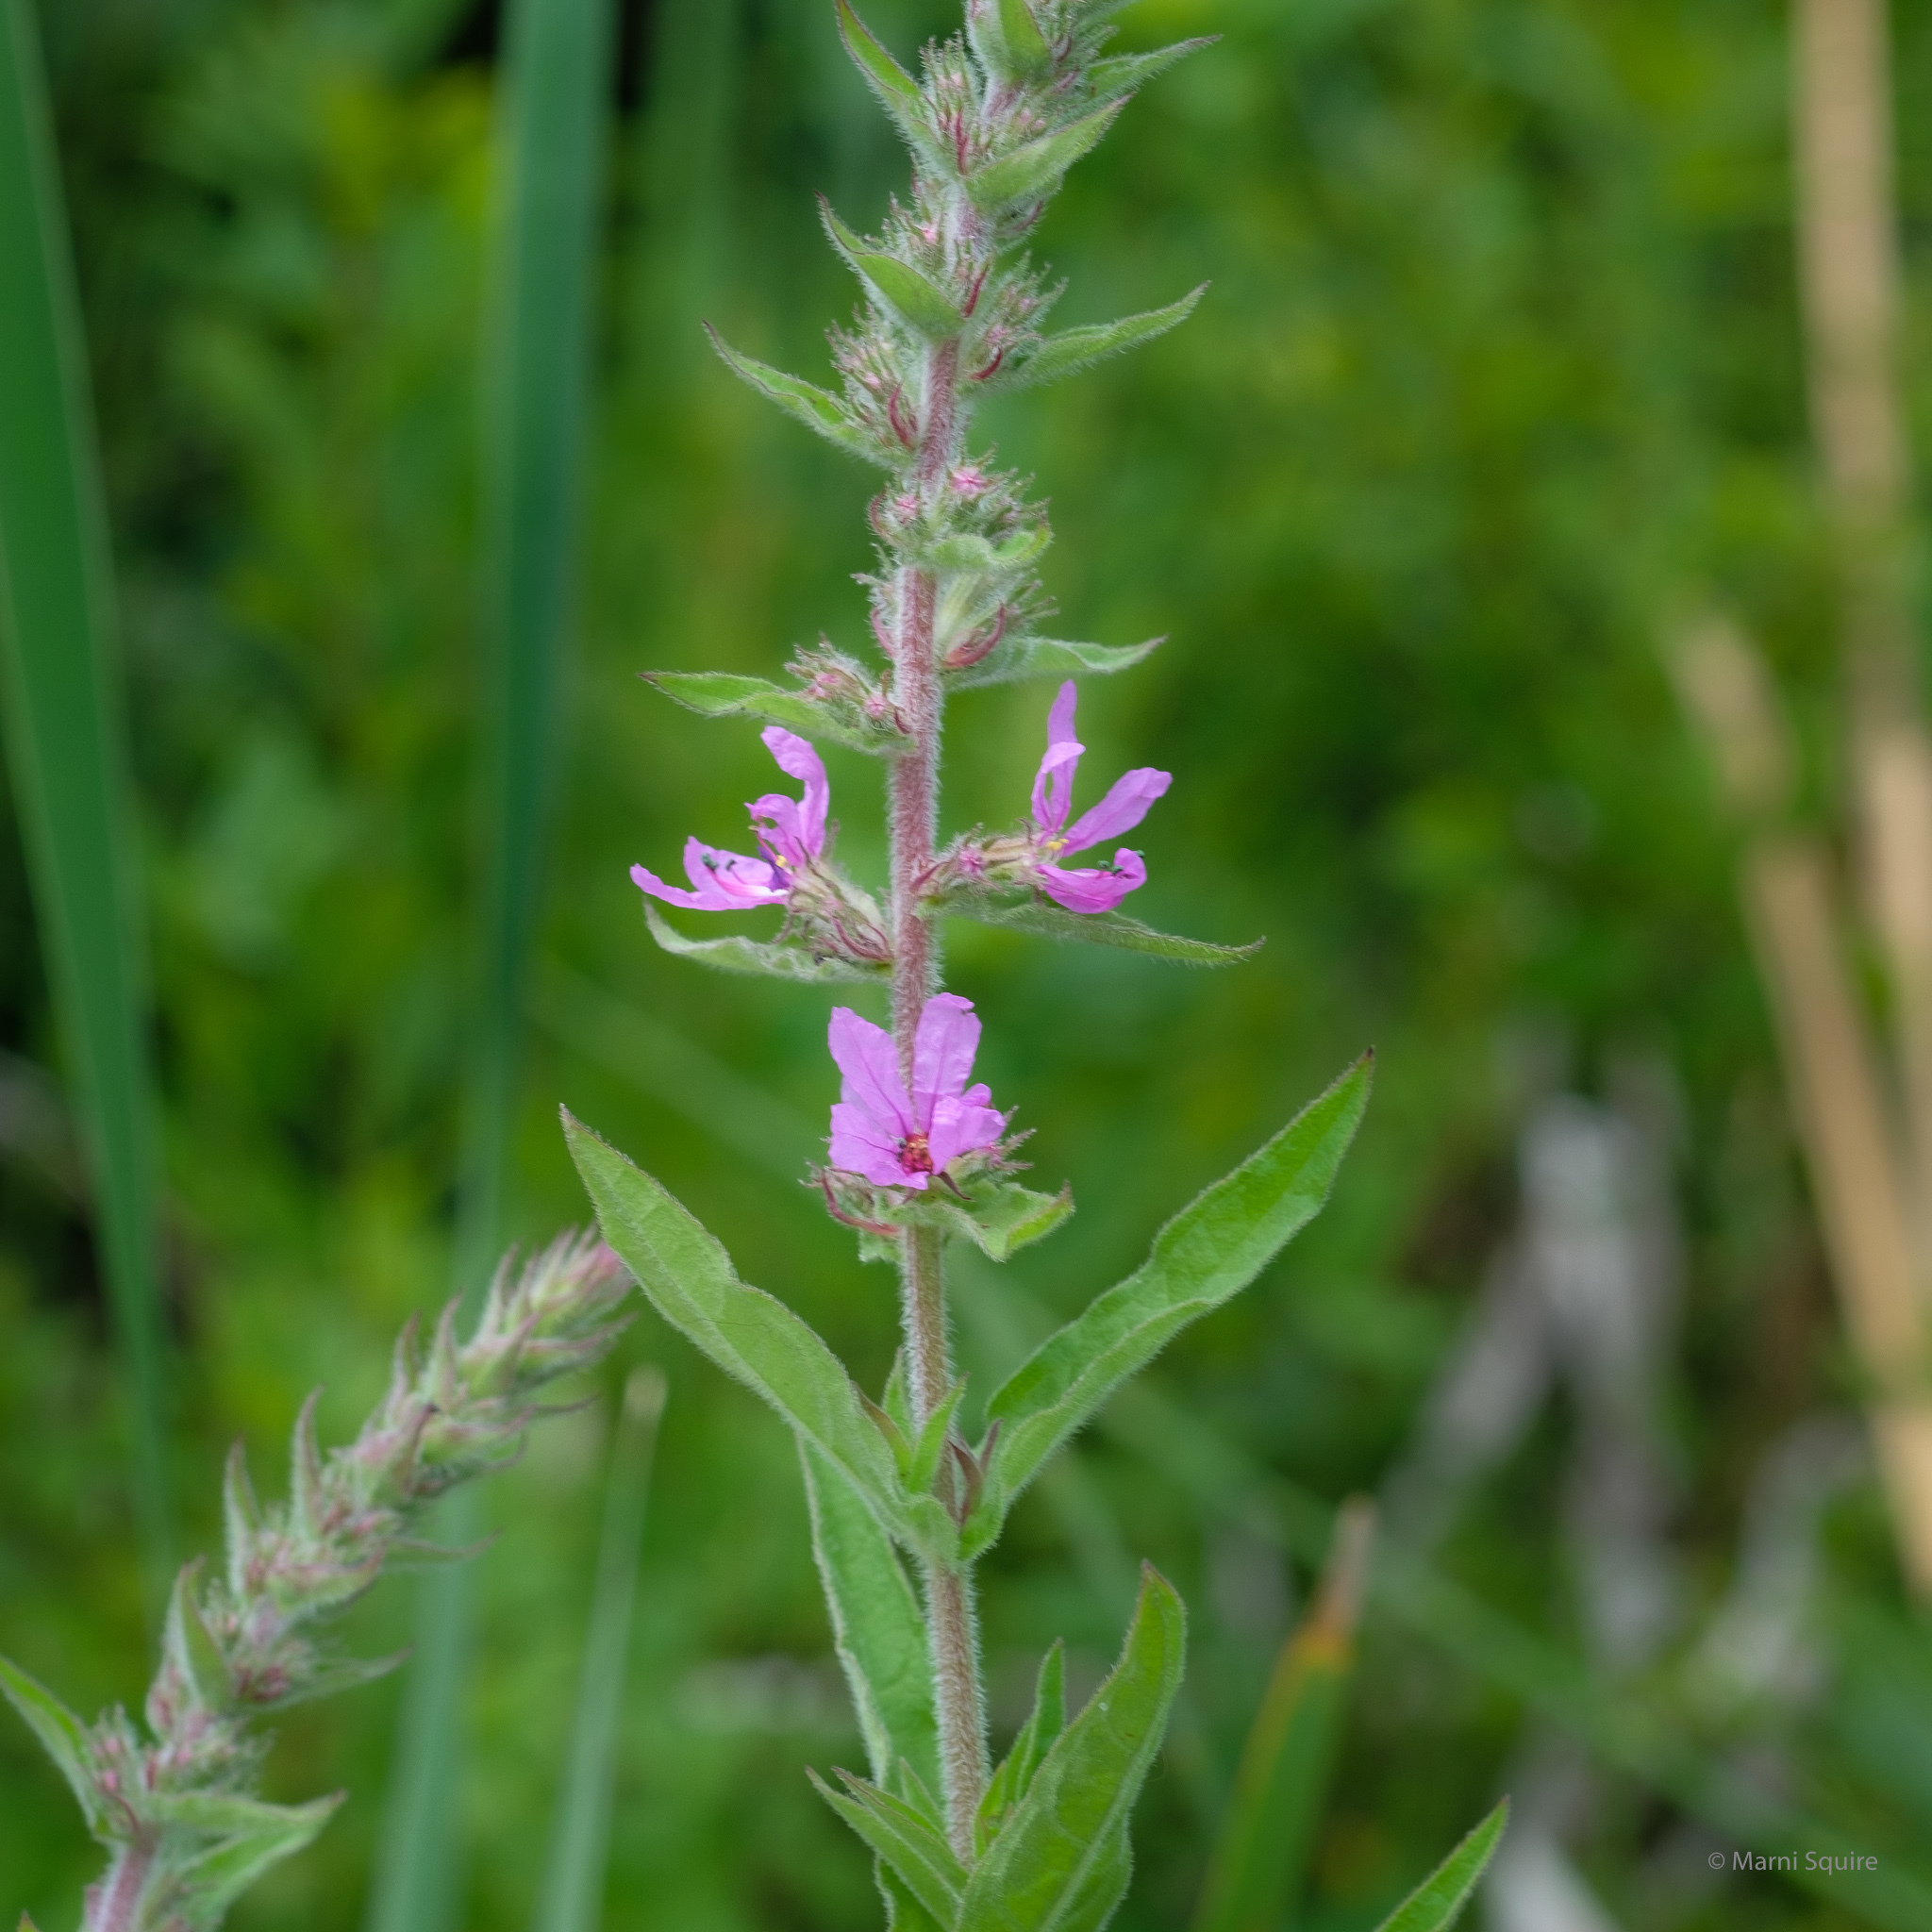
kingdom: Plantae
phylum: Tracheophyta
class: Magnoliopsida
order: Myrtales
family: Lythraceae
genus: Lythrum
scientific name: Lythrum salicaria
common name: Purple loosestrife
